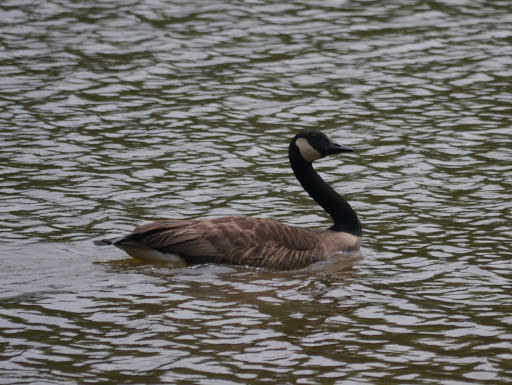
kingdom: Animalia
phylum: Chordata
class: Aves
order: Anseriformes
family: Anatidae
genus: Branta
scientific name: Branta canadensis
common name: Canada goose
